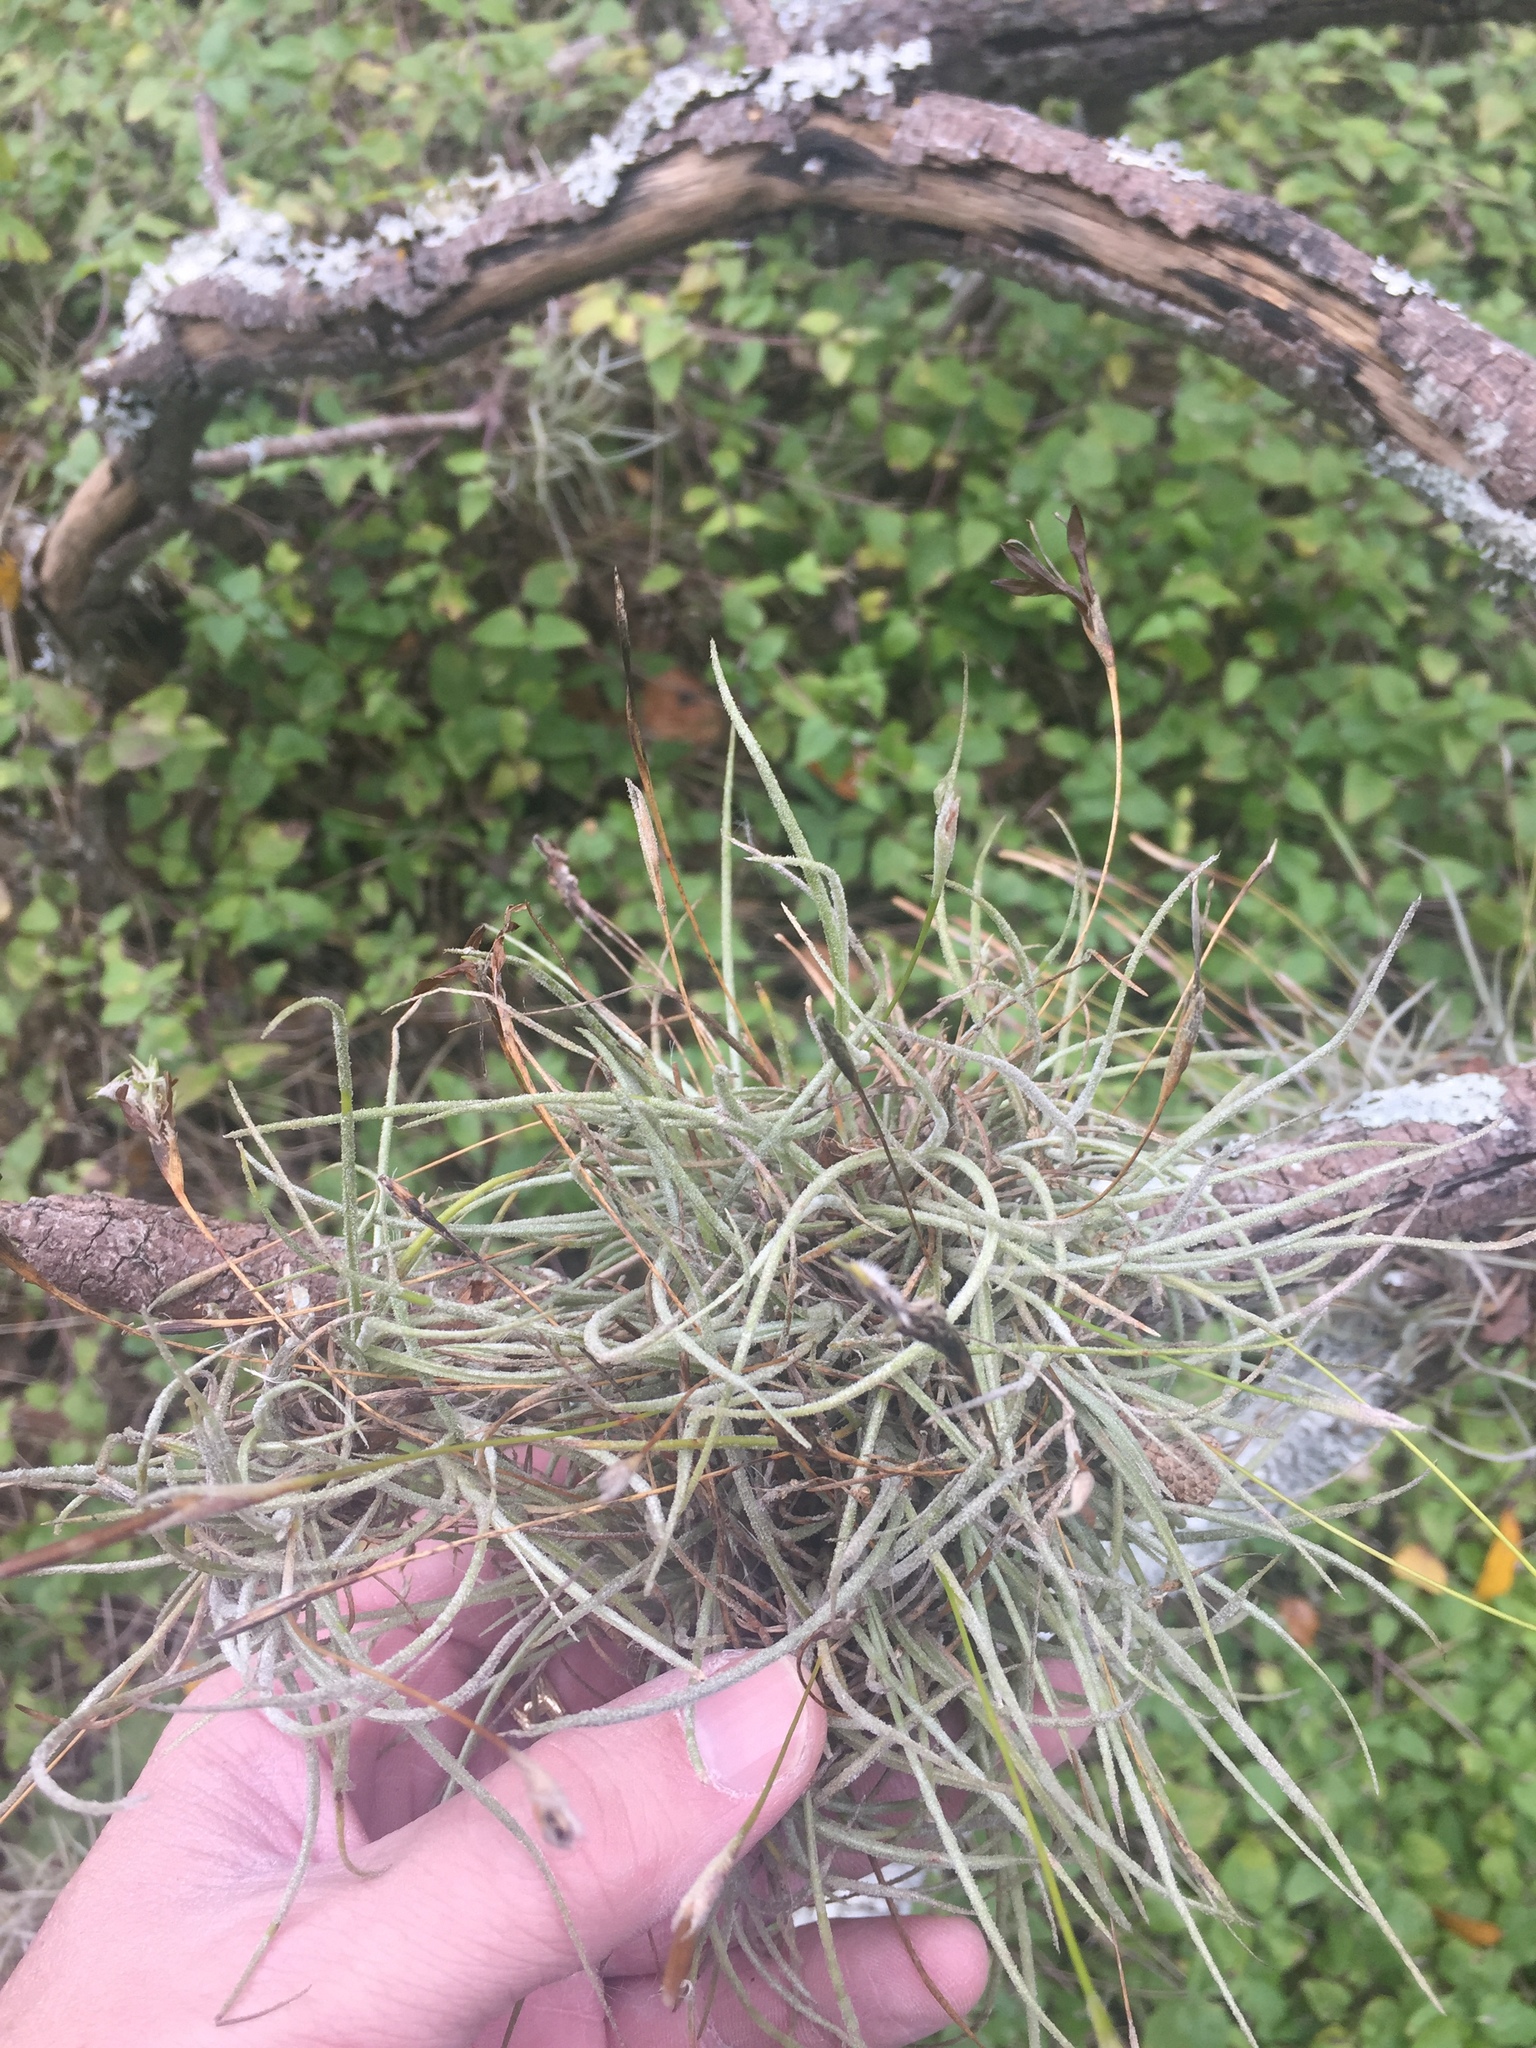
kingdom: Plantae
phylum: Tracheophyta
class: Liliopsida
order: Poales
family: Bromeliaceae
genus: Tillandsia
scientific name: Tillandsia recurvata
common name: Small ballmoss
